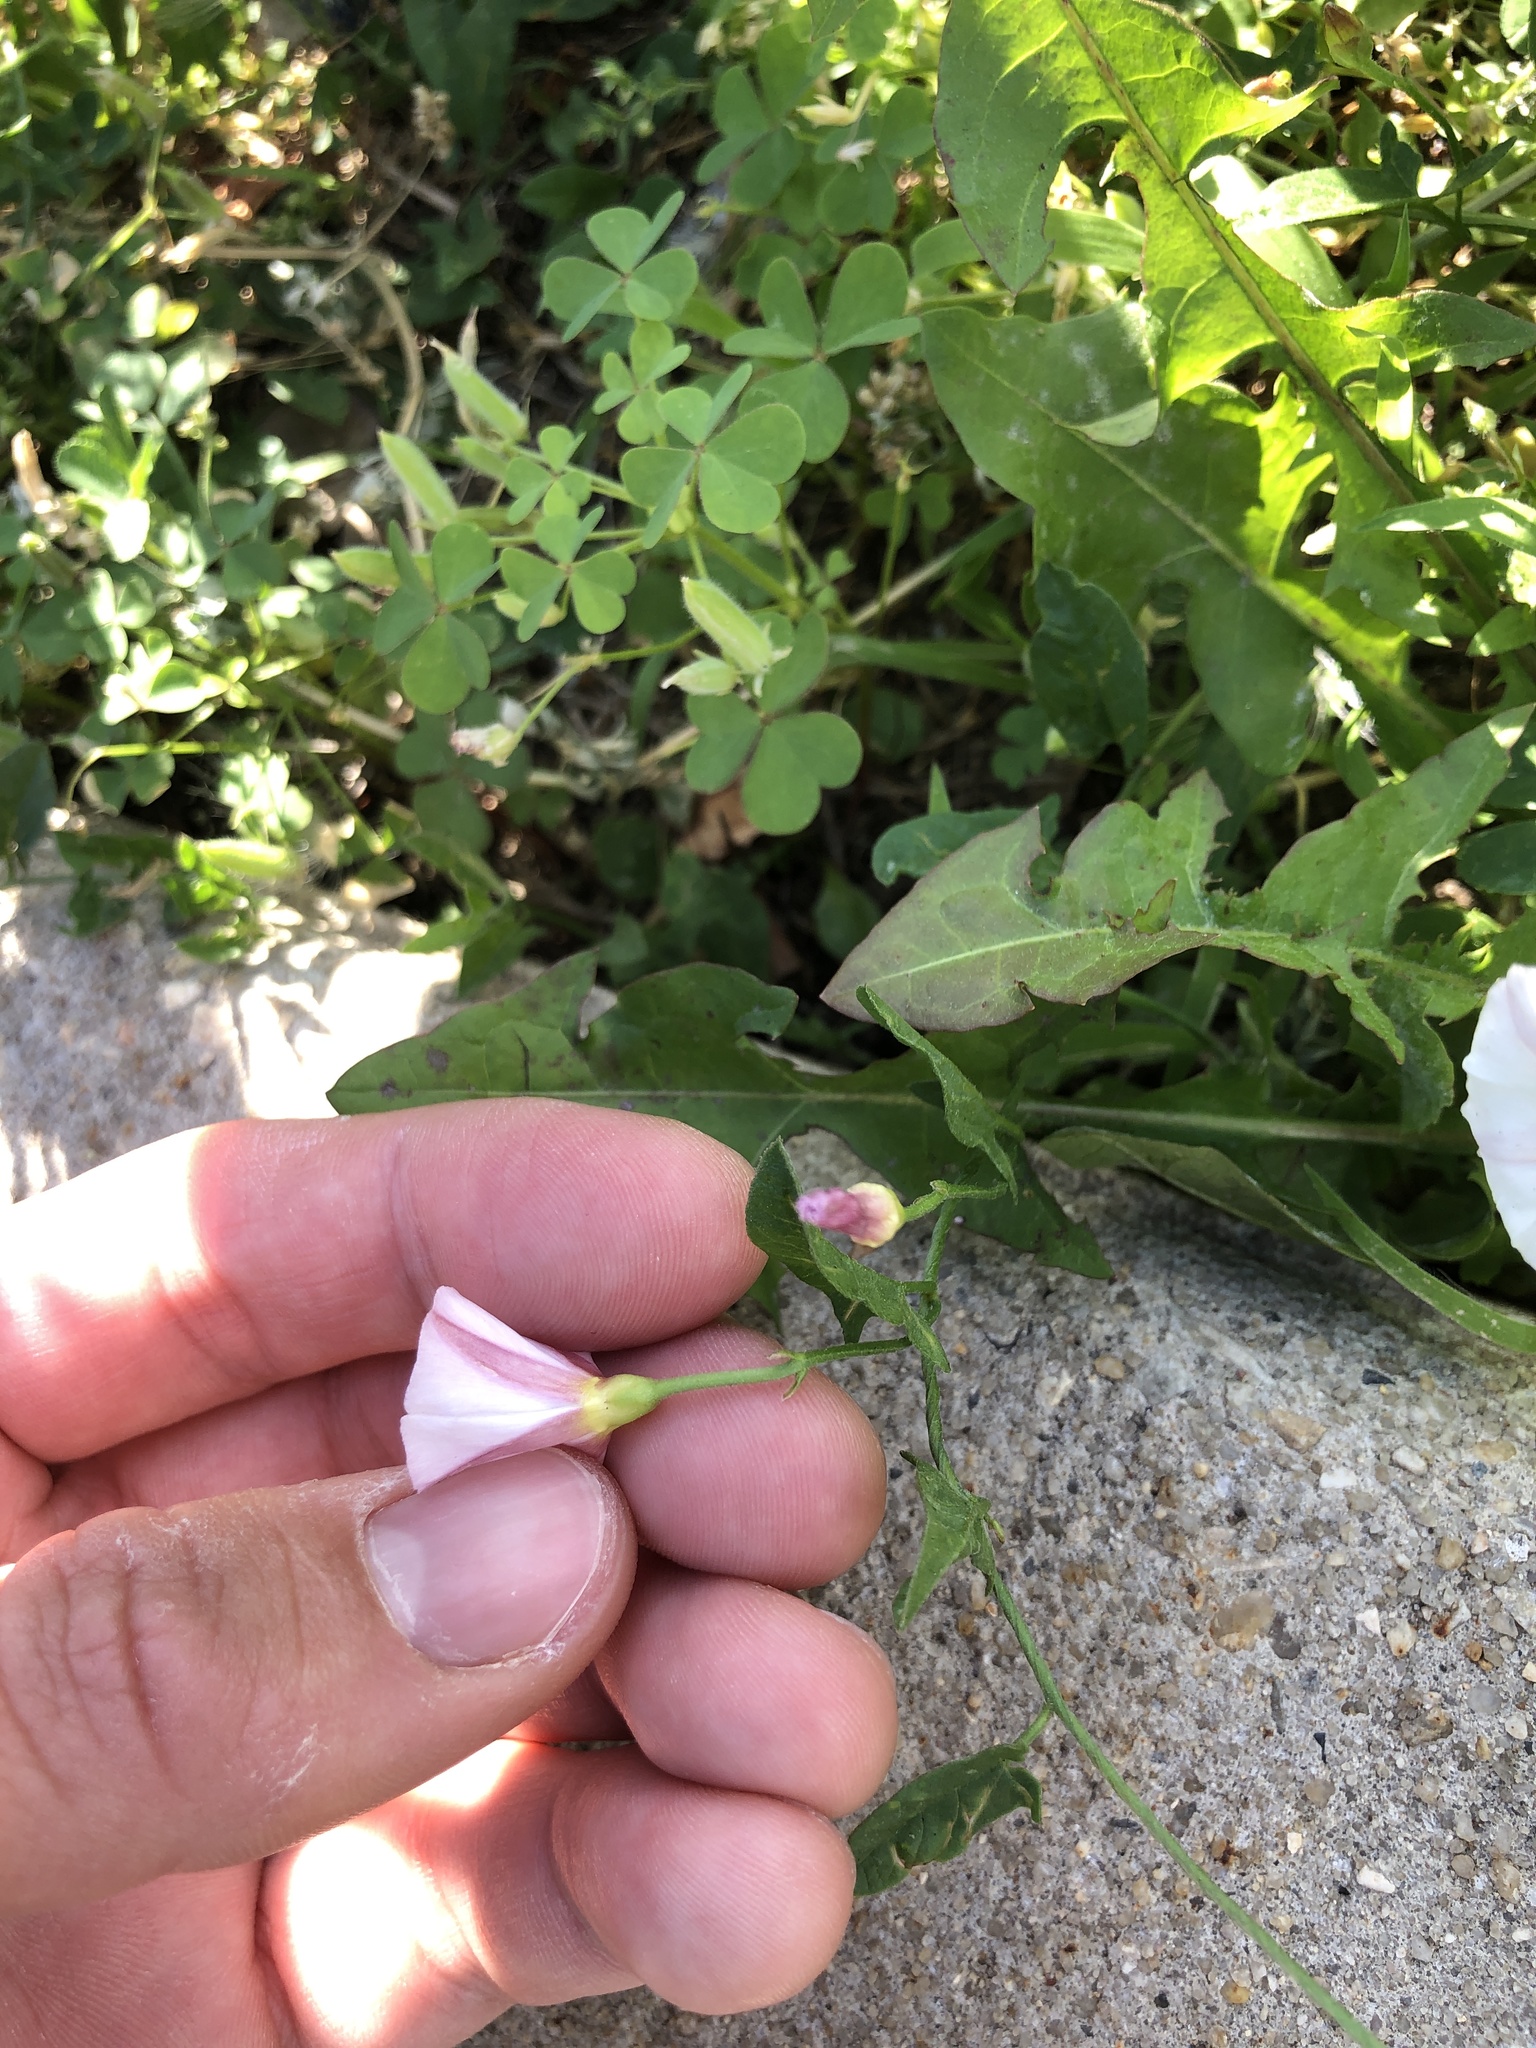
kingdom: Plantae
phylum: Tracheophyta
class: Magnoliopsida
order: Solanales
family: Convolvulaceae
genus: Convolvulus
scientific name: Convolvulus arvensis
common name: Field bindweed
